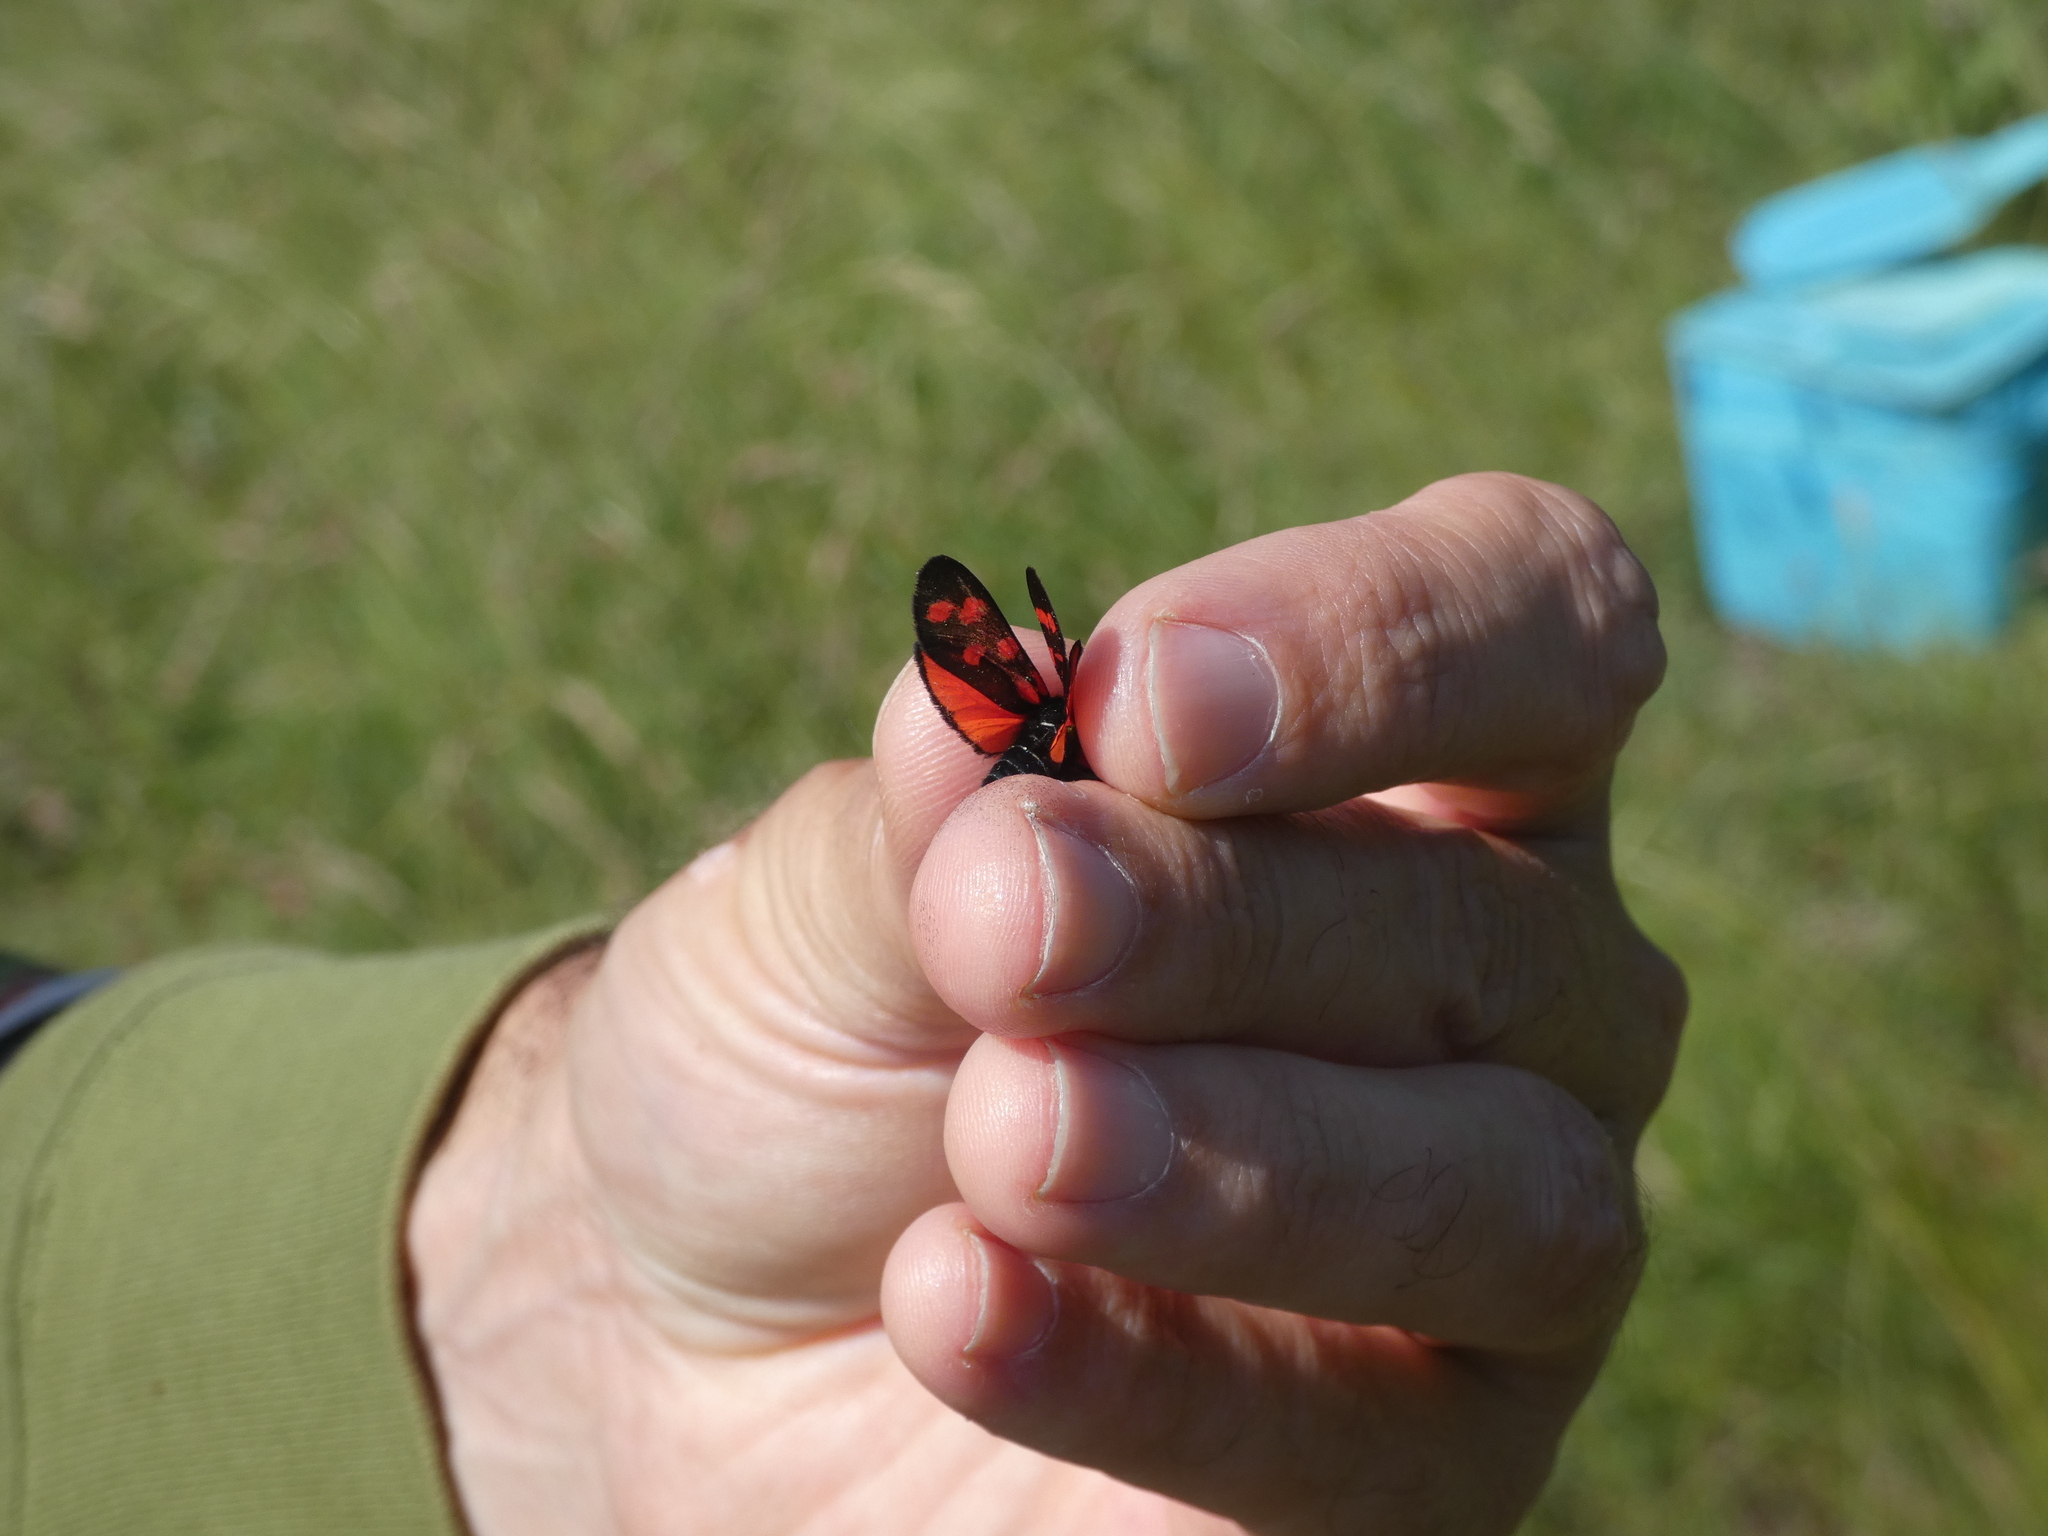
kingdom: Animalia
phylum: Arthropoda
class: Insecta
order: Lepidoptera
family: Zygaenidae
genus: Zygaena
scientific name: Zygaena transalpina
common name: Southern six spot burnet
